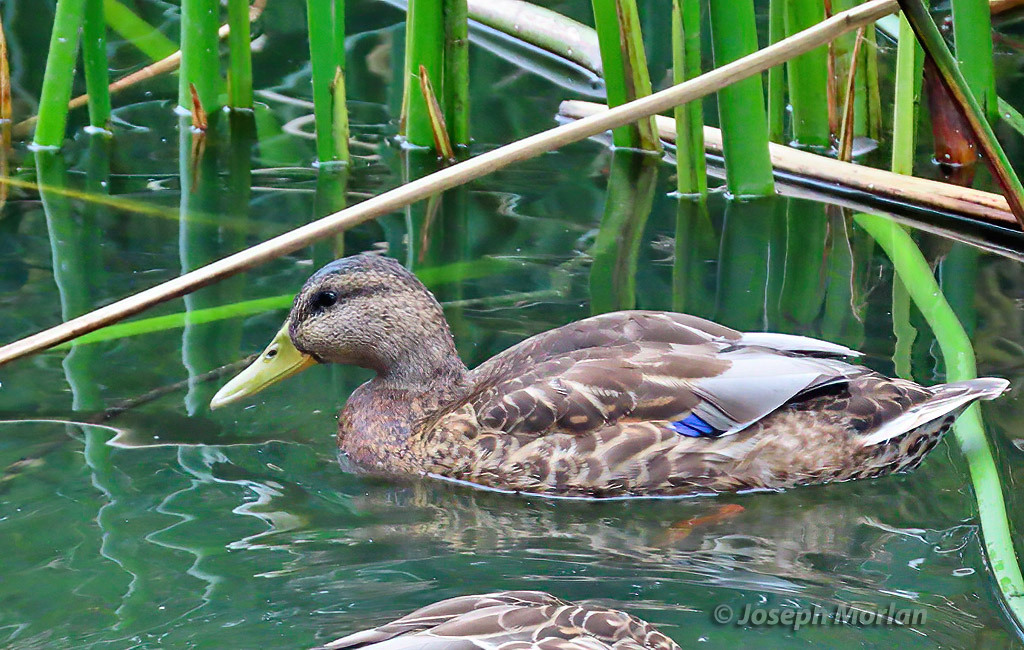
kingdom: Animalia
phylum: Chordata
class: Aves
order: Anseriformes
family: Anatidae
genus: Anas
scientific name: Anas platyrhynchos
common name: Mallard
